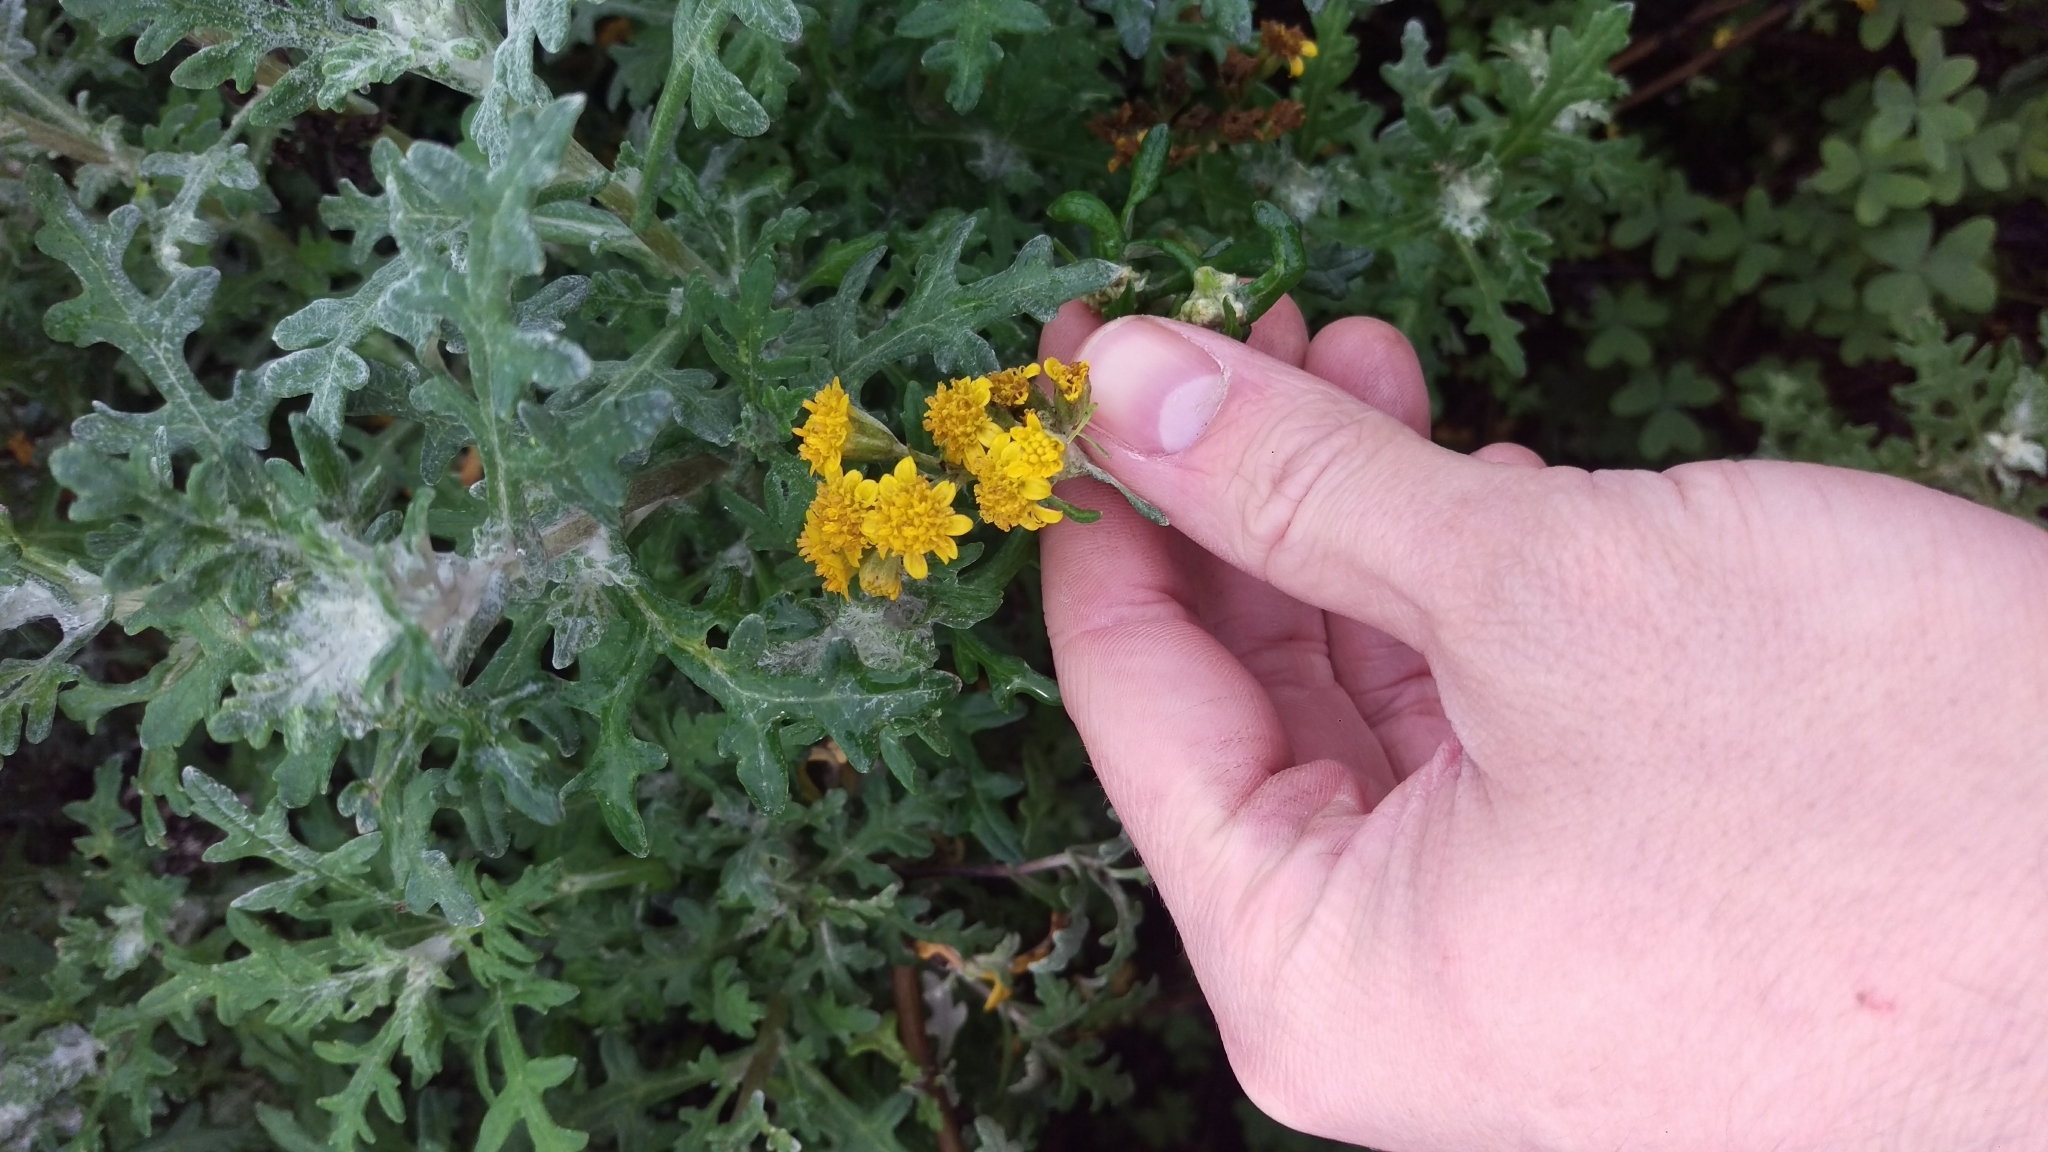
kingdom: Plantae
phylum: Tracheophyta
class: Magnoliopsida
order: Asterales
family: Asteraceae
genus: Eriophyllum
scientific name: Eriophyllum staechadifolium
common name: Lizardtail
